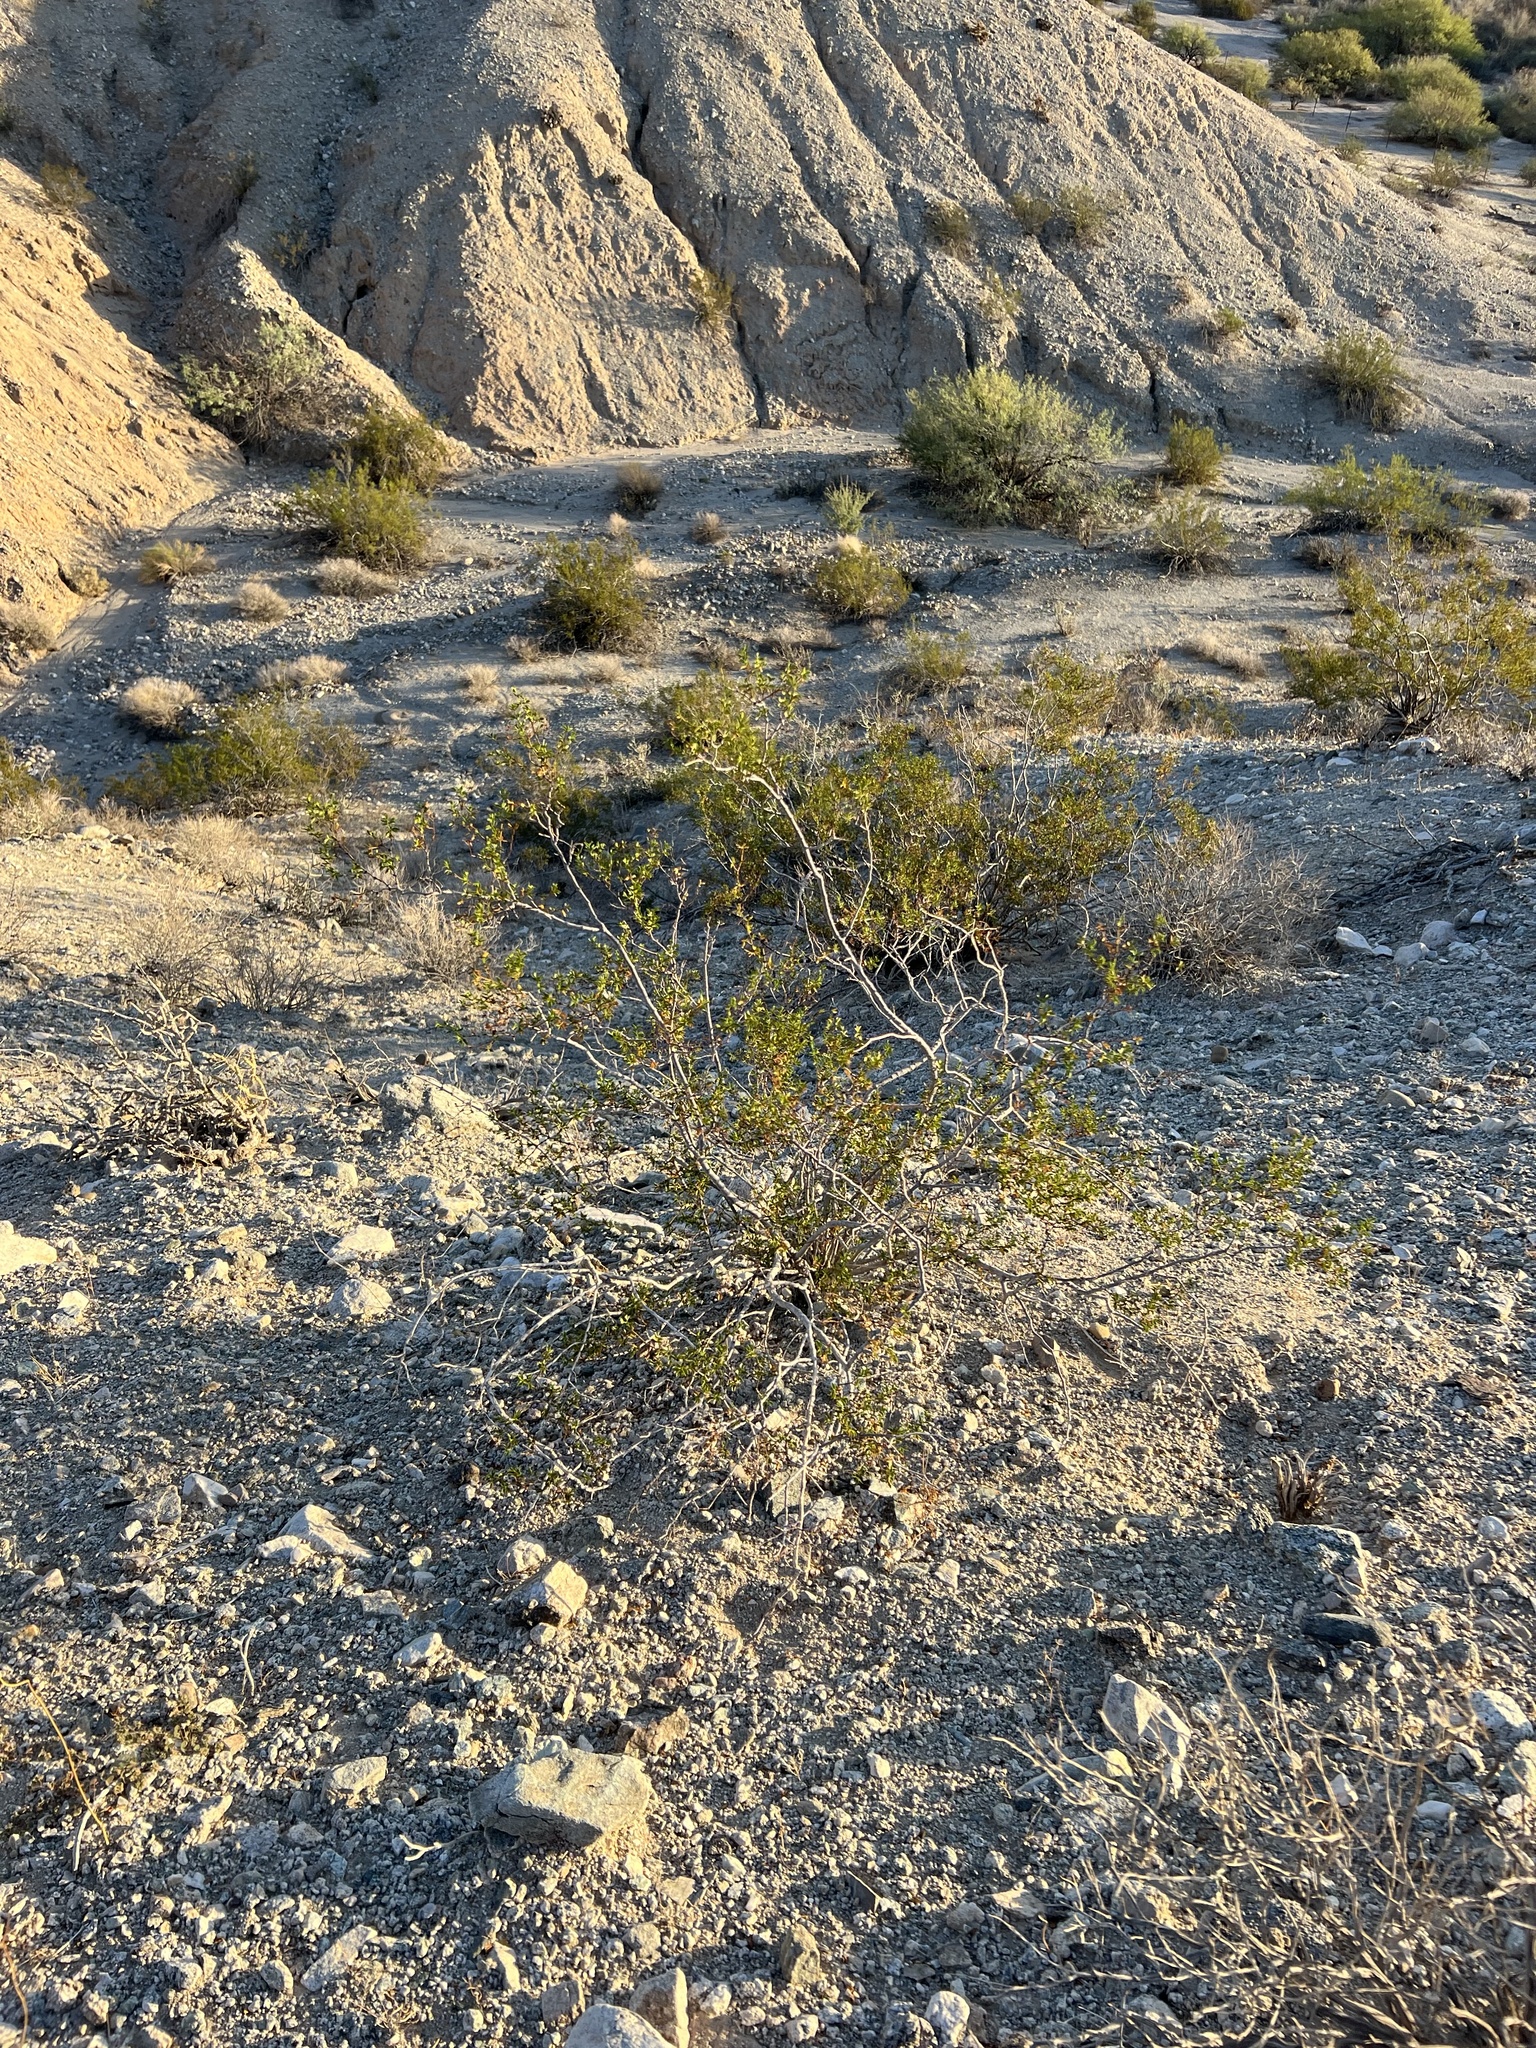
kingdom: Plantae
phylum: Tracheophyta
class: Magnoliopsida
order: Zygophyllales
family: Zygophyllaceae
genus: Larrea
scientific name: Larrea tridentata
